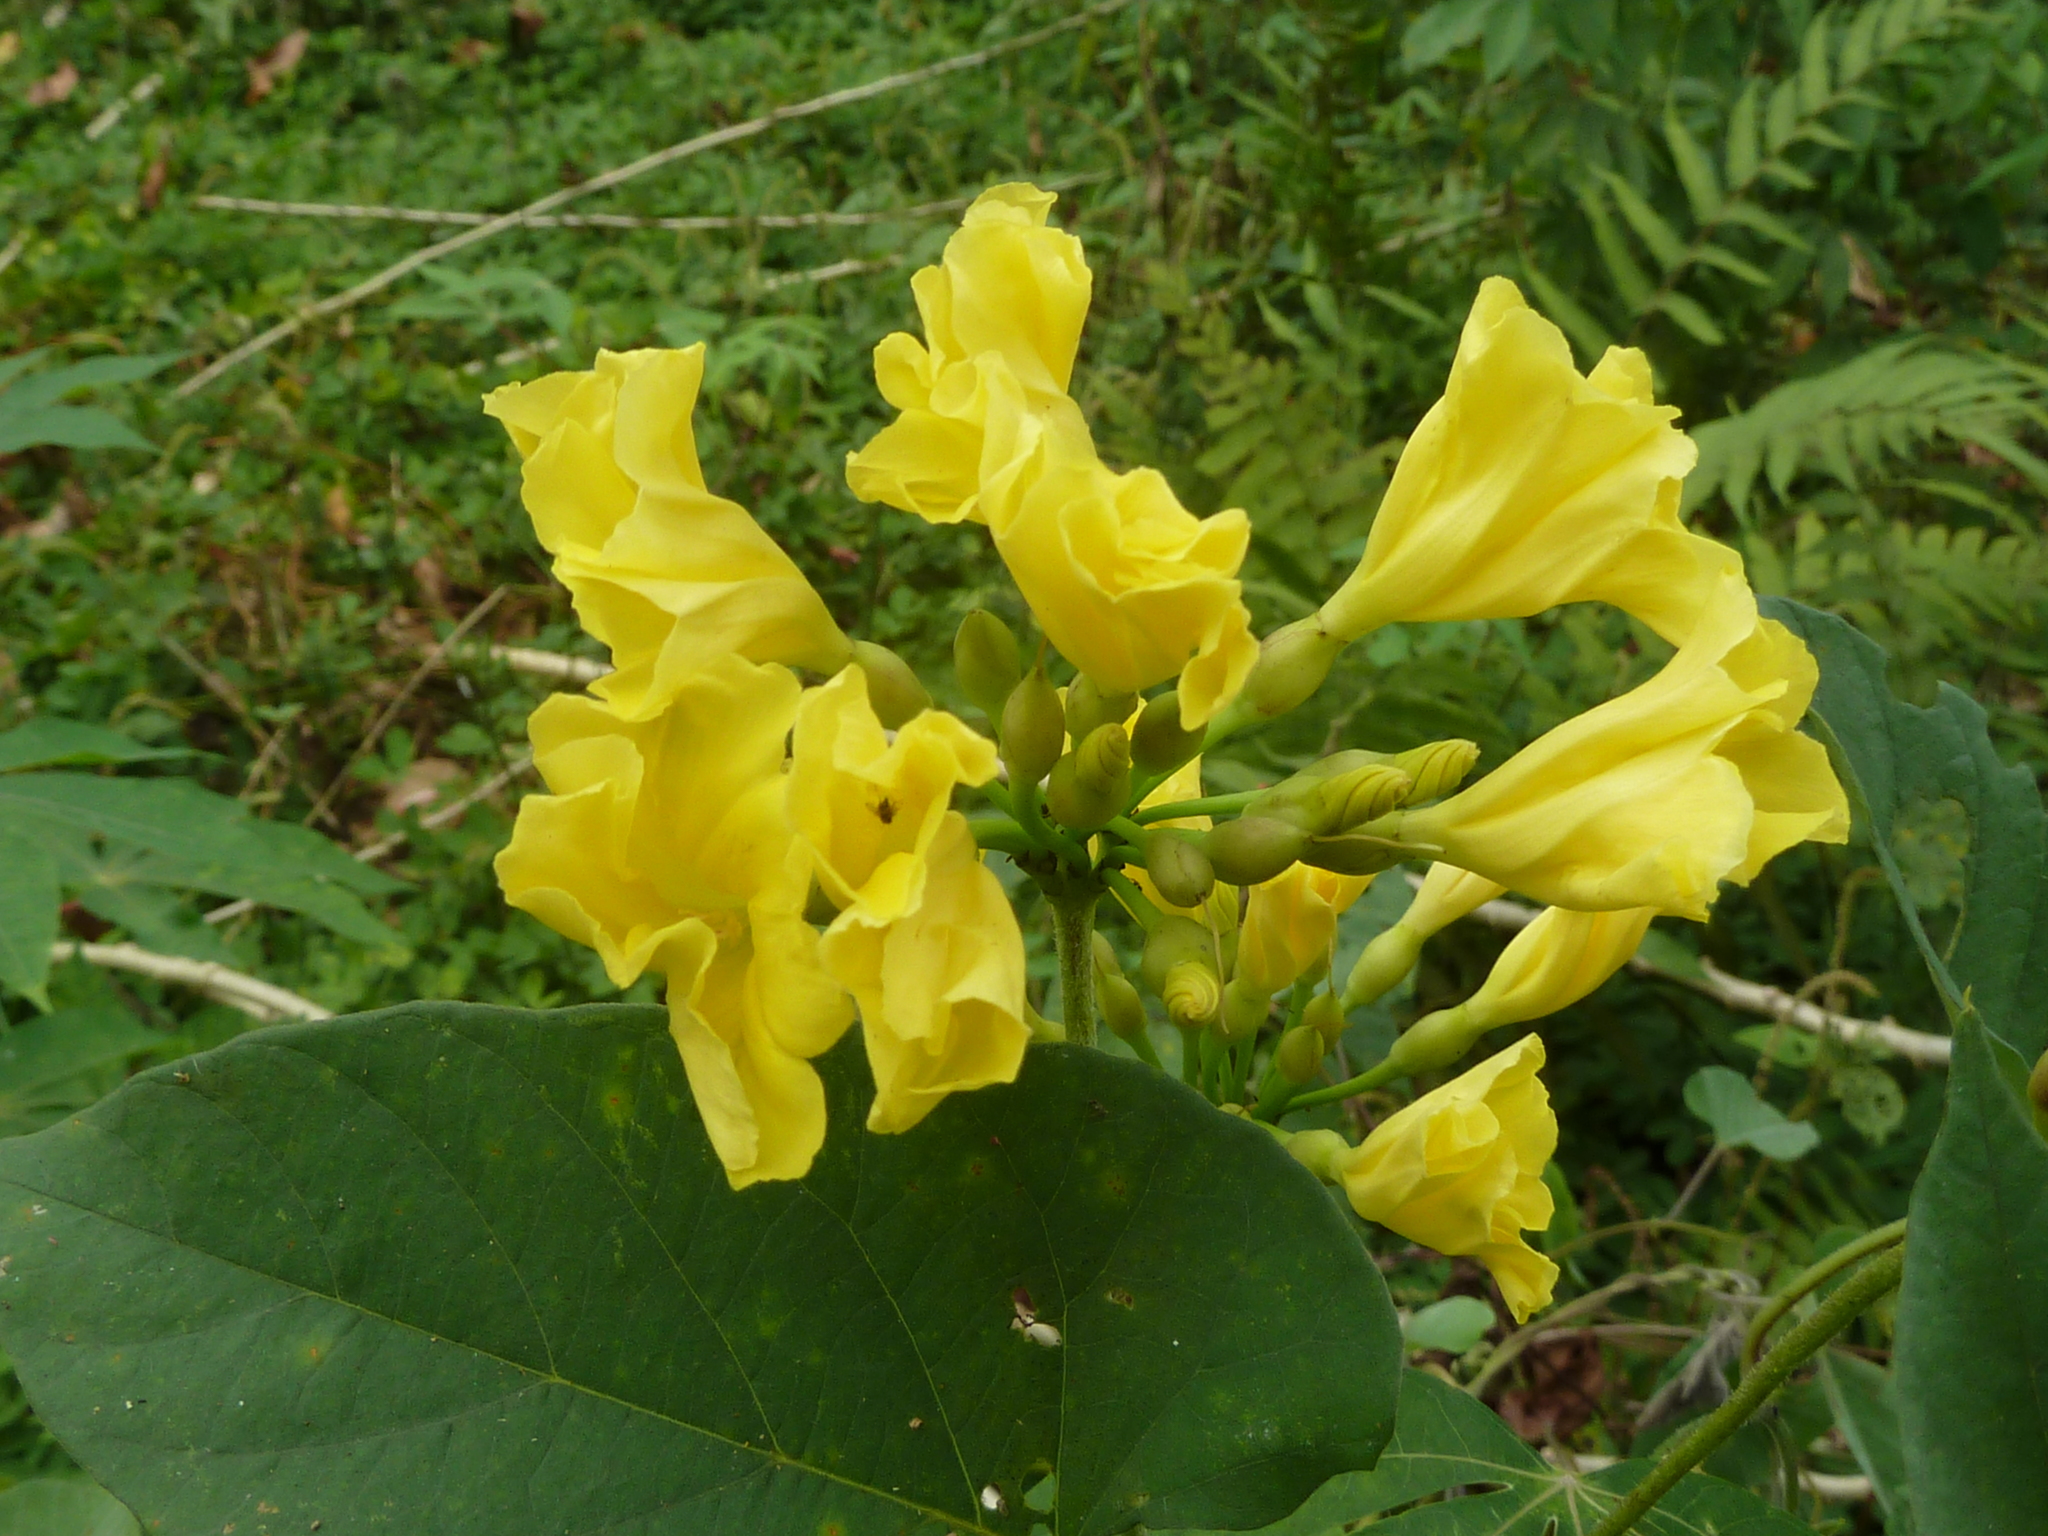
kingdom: Plantae
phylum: Tracheophyta
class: Magnoliopsida
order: Solanales
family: Convolvulaceae
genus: Camonea
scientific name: Camonea umbellata
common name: Hogvine
